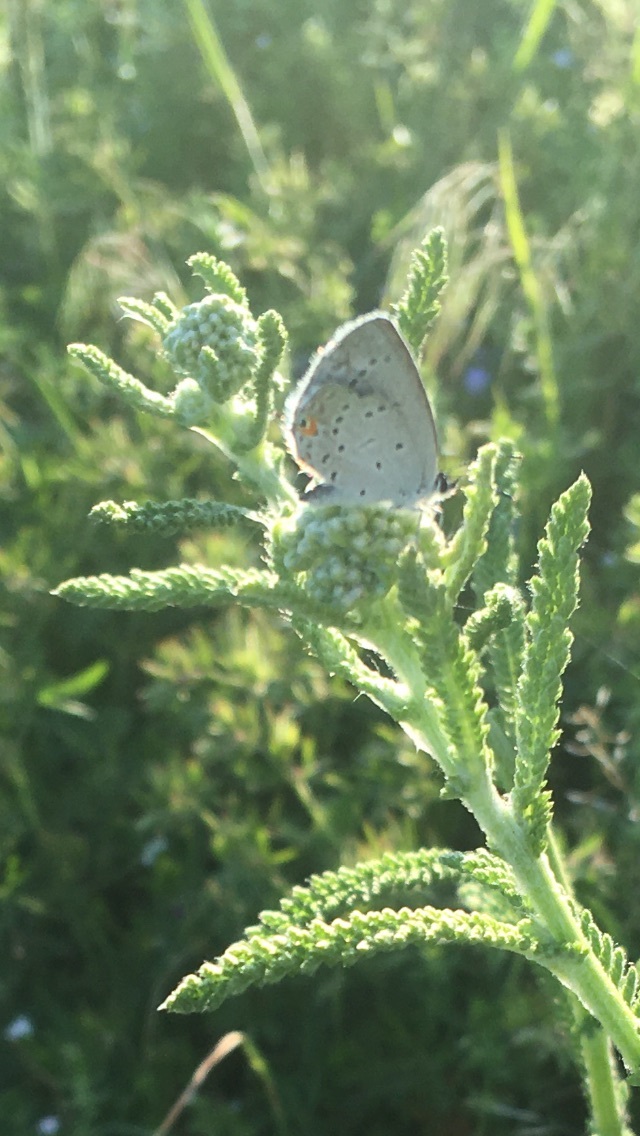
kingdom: Animalia
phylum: Arthropoda
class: Insecta
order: Lepidoptera
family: Lycaenidae
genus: Elkalyce
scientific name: Elkalyce comyntas
